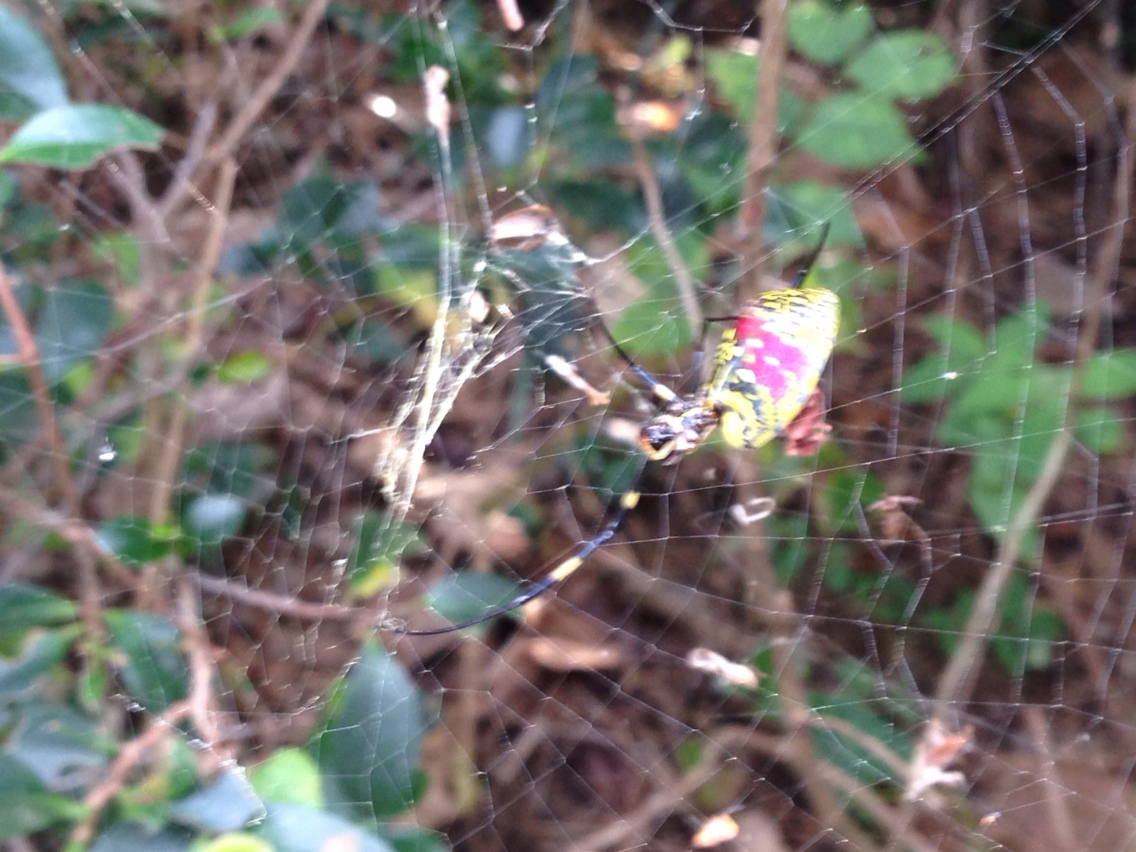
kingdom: Animalia
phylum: Arthropoda
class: Arachnida
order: Araneae
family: Araneidae
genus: Trichonephila
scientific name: Trichonephila clavata
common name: Jorō spider
